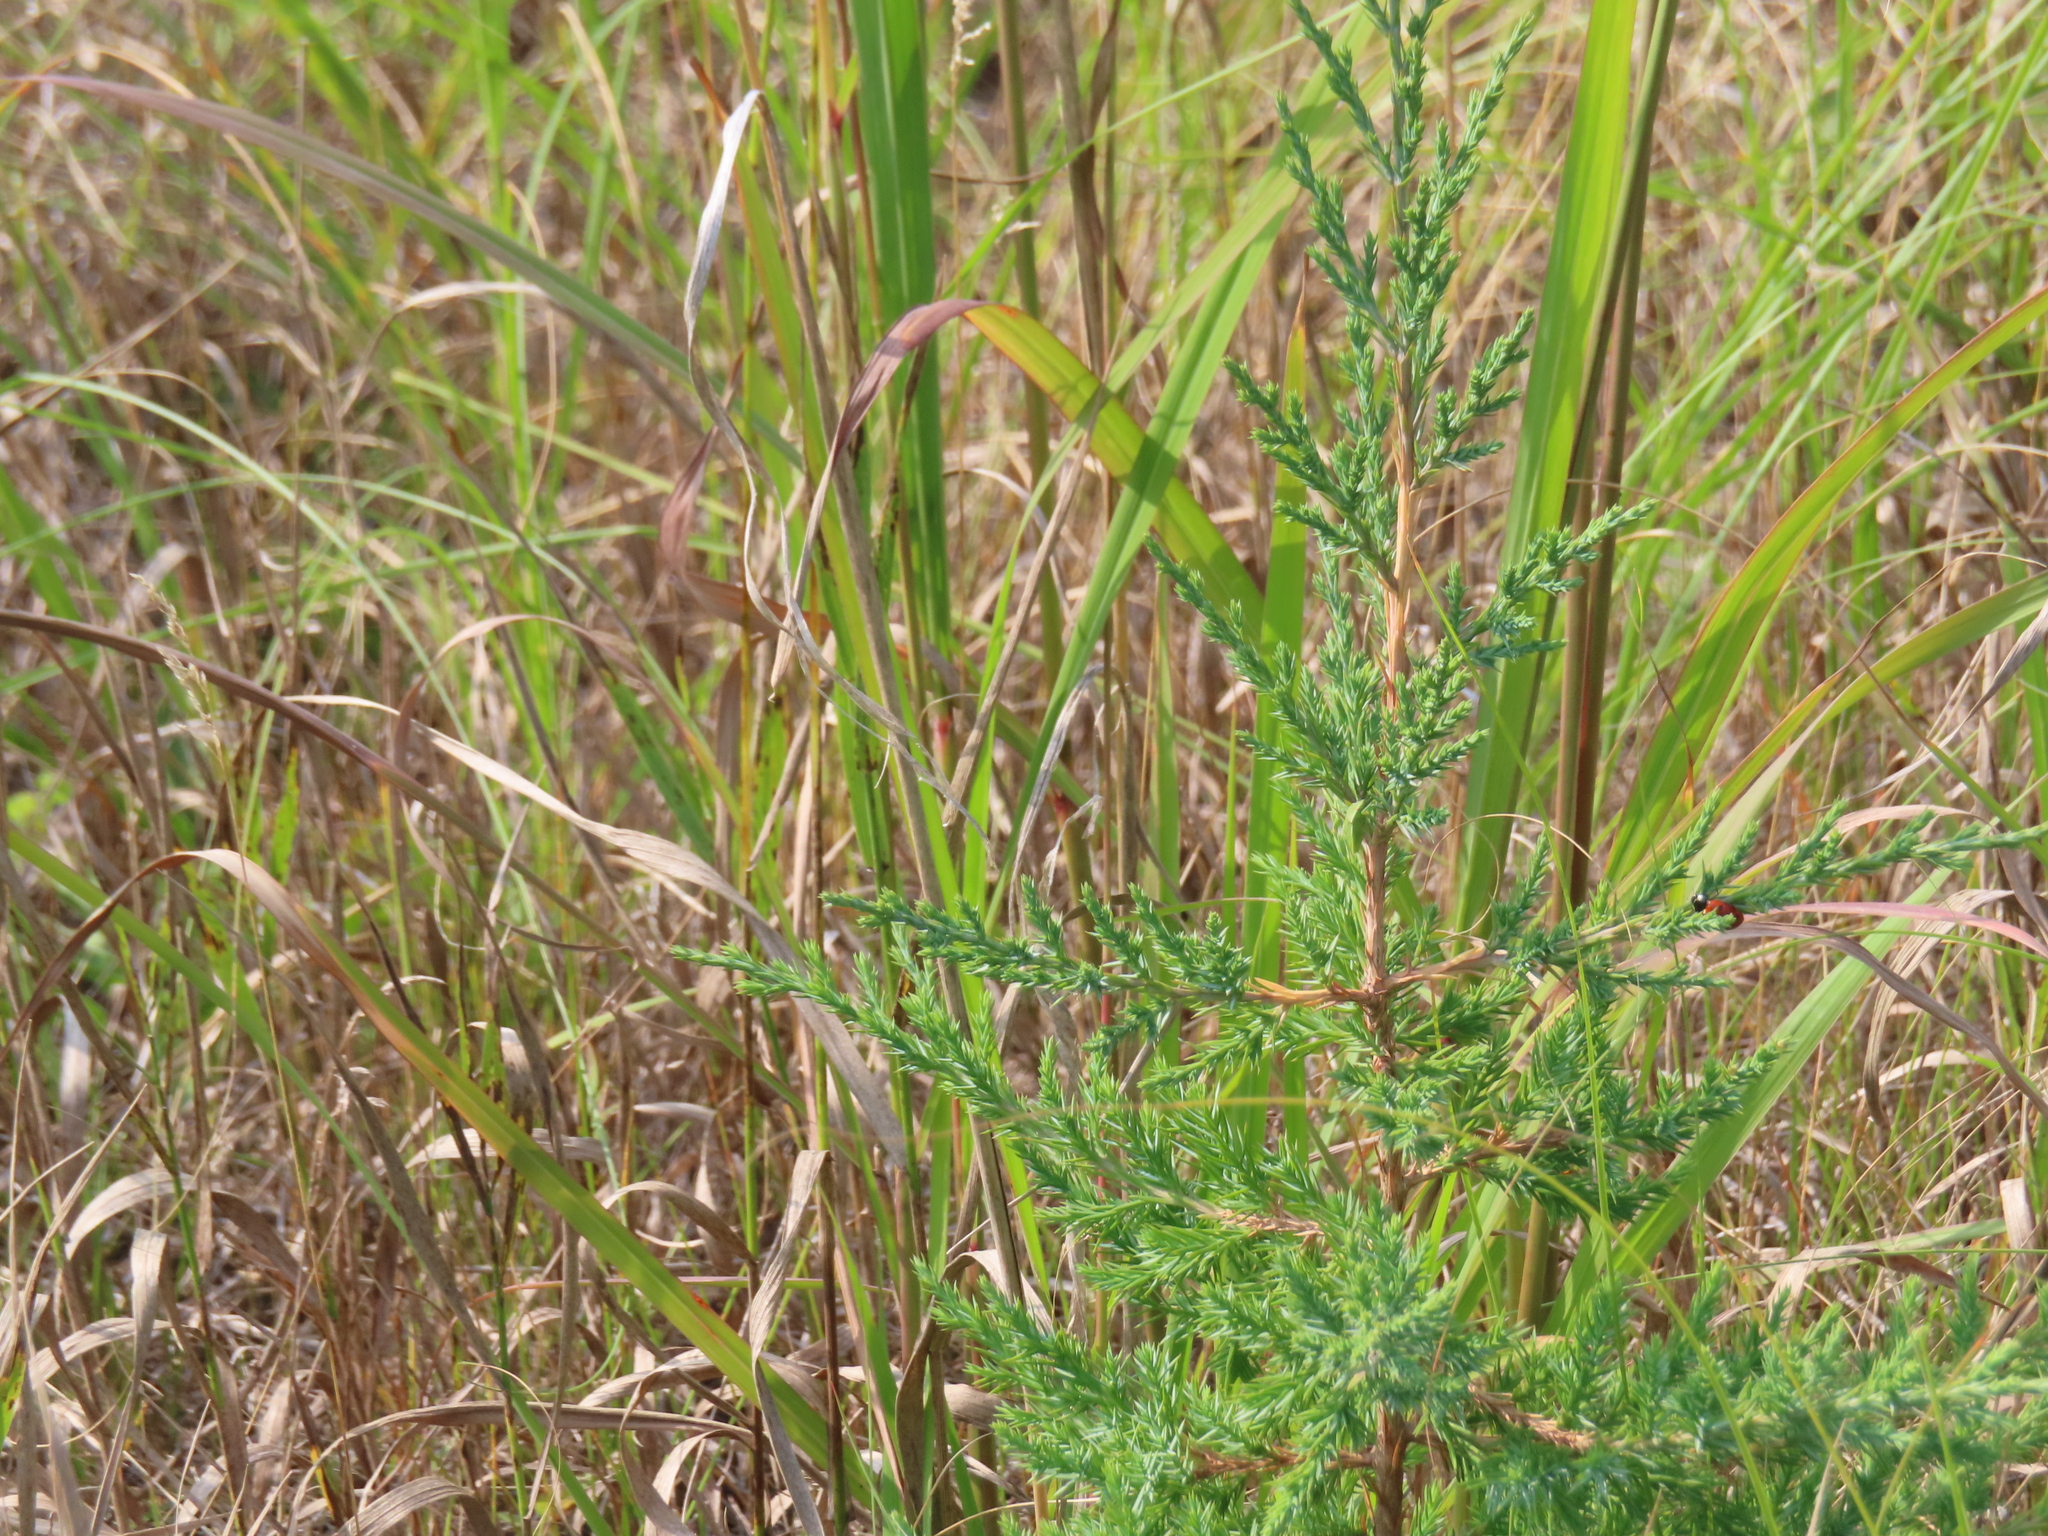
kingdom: Plantae
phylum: Tracheophyta
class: Pinopsida
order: Pinales
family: Cupressaceae
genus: Juniperus
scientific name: Juniperus virginiana
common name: Red juniper
